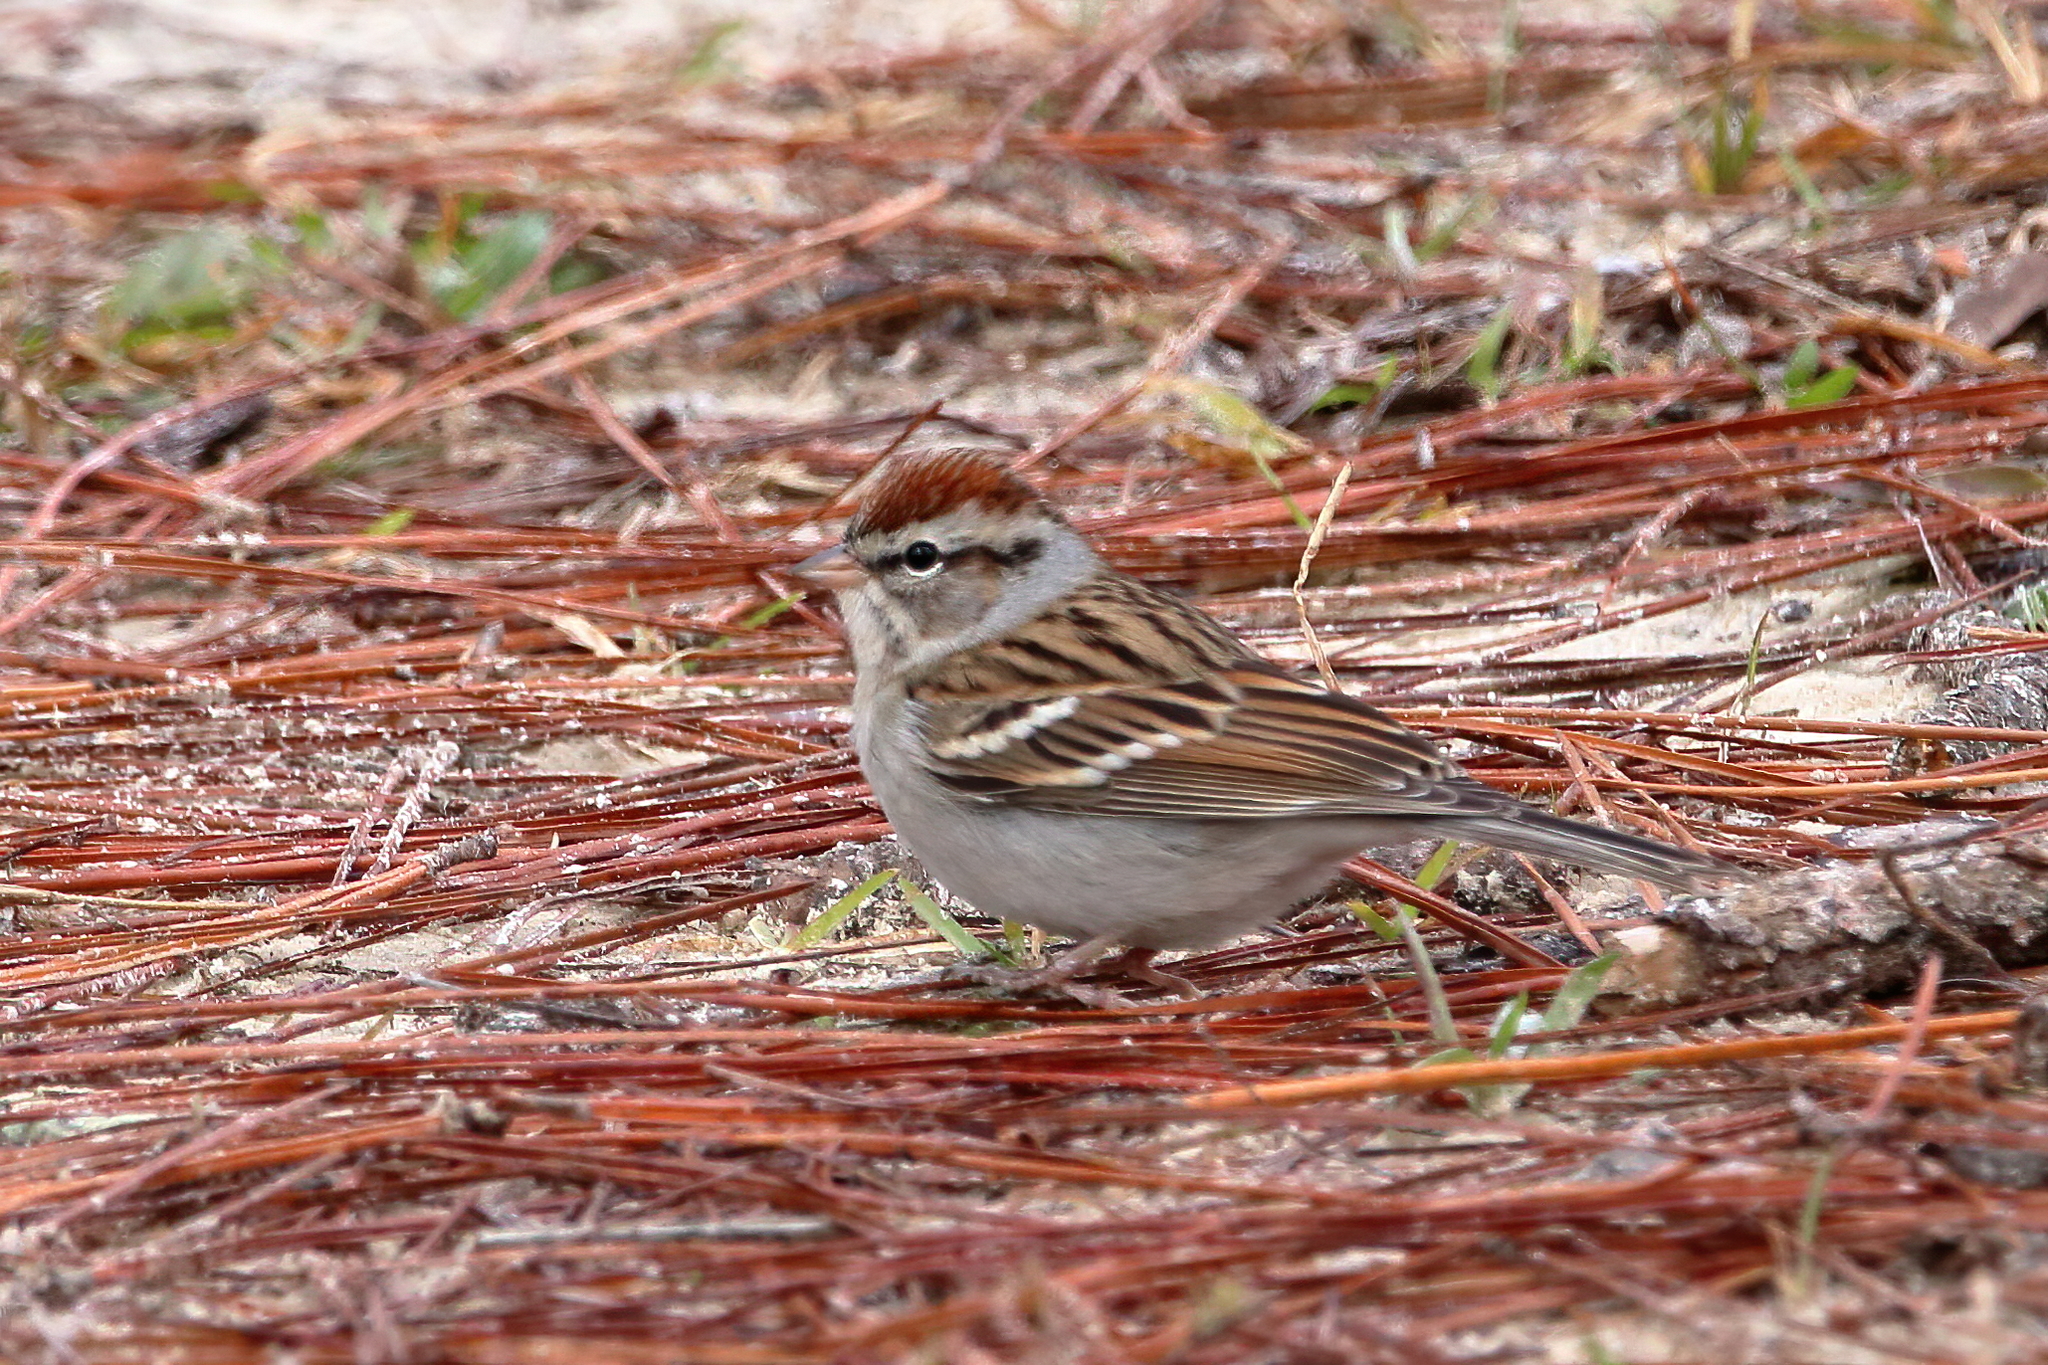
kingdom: Animalia
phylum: Chordata
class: Aves
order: Passeriformes
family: Passerellidae
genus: Spizella
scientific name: Spizella passerina
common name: Chipping sparrow
